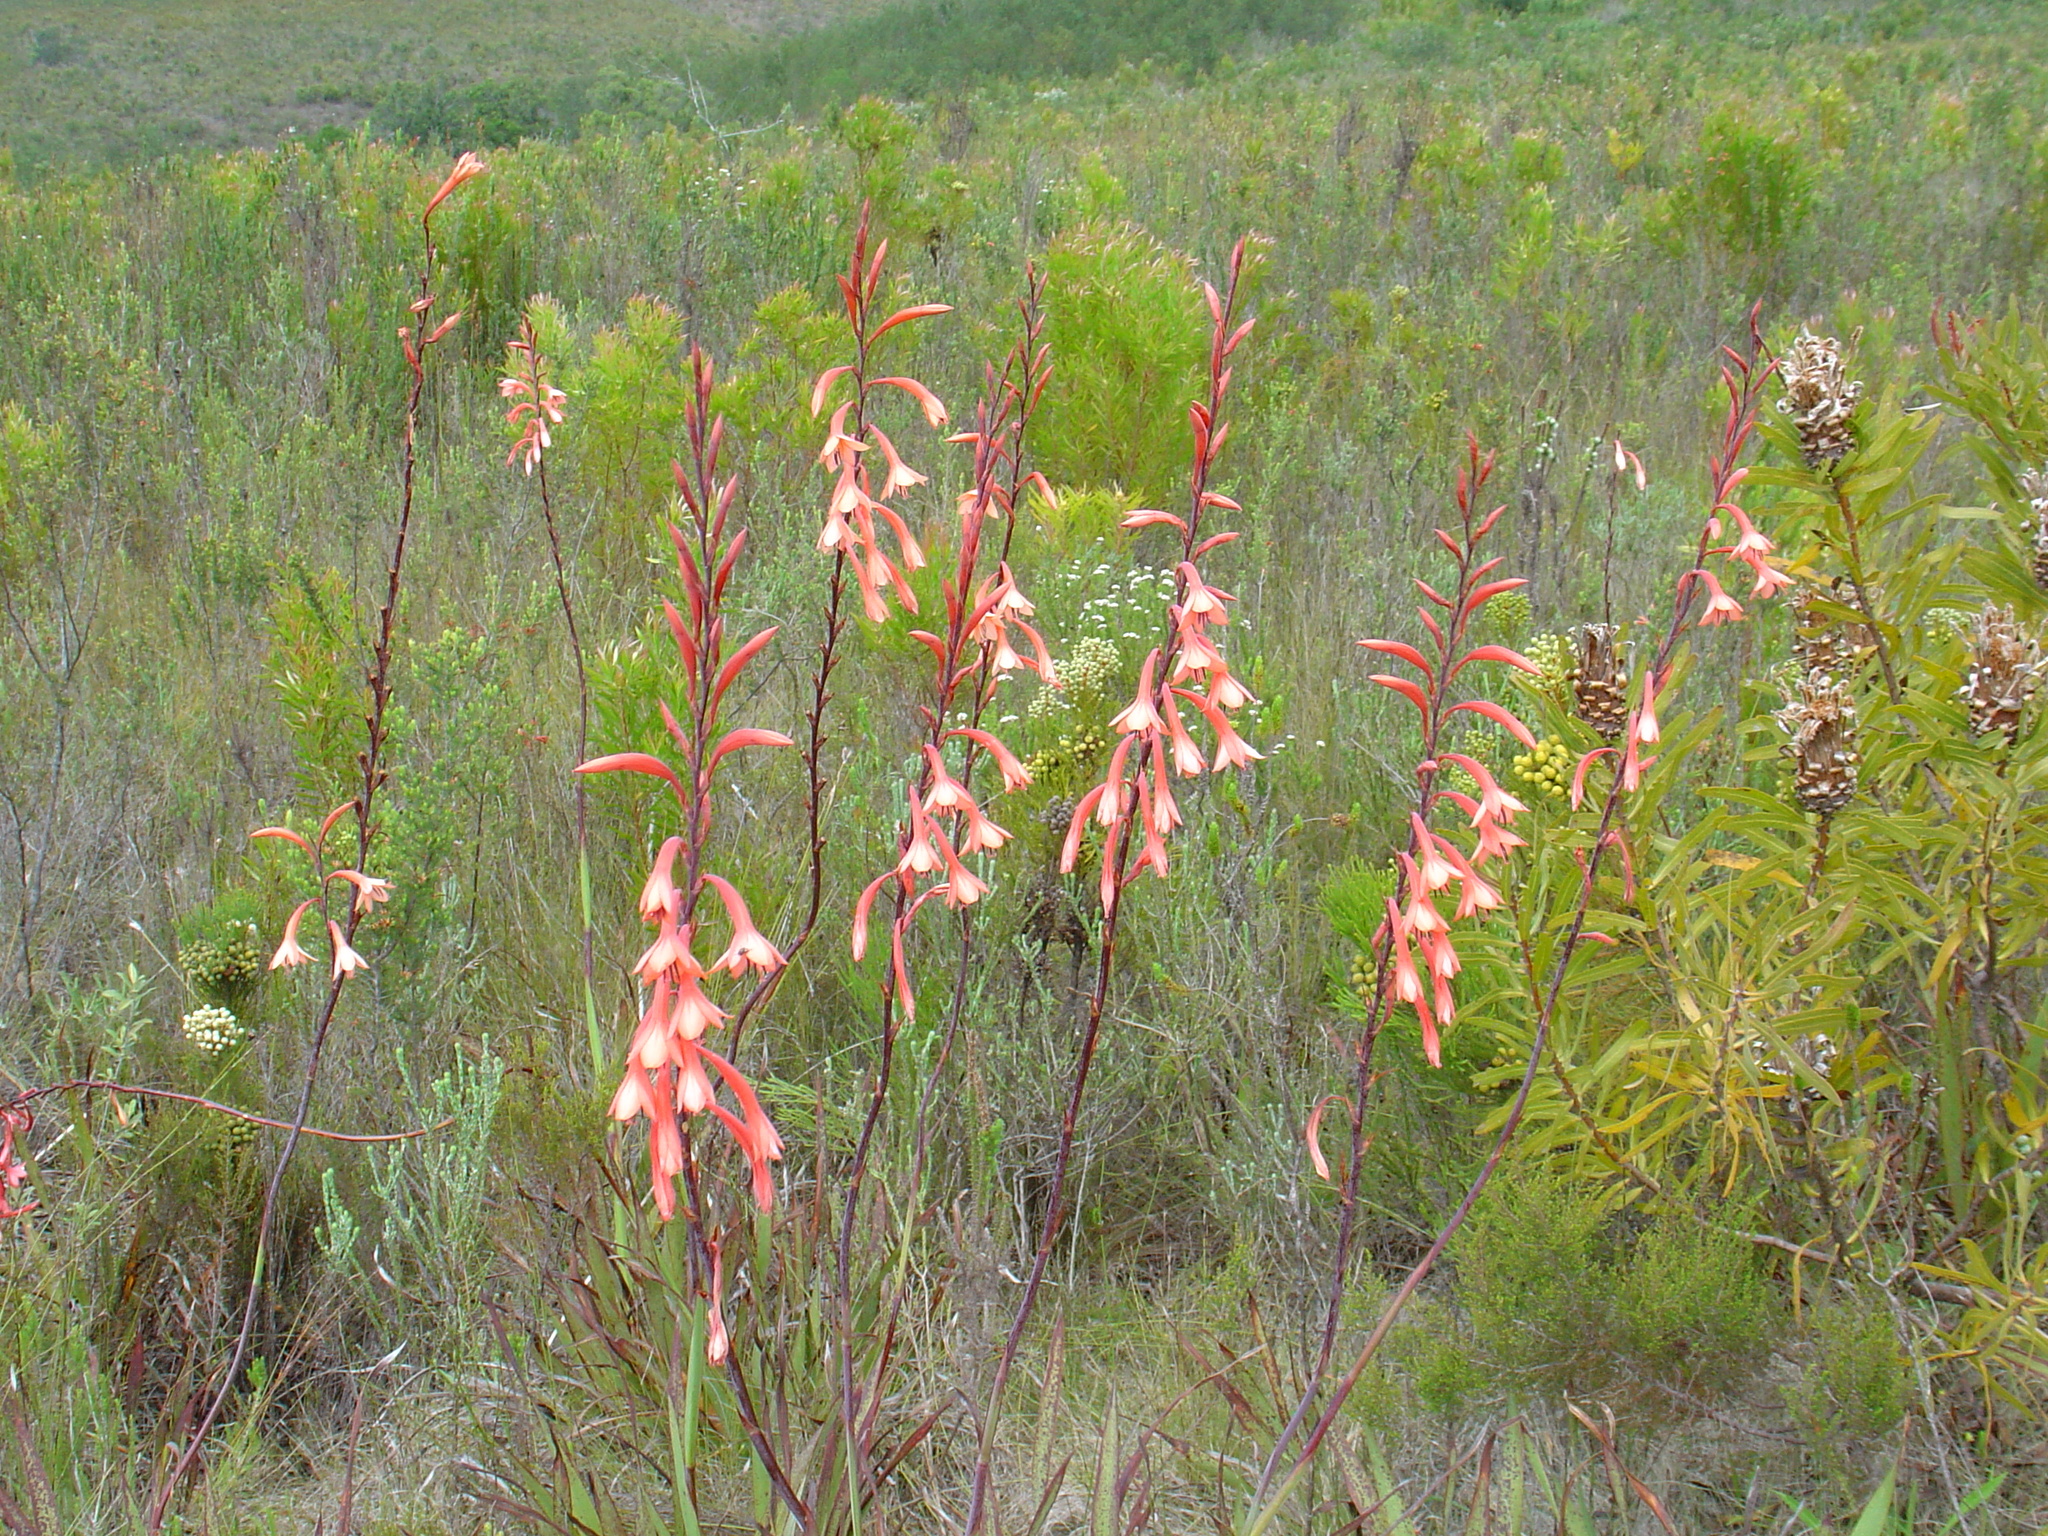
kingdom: Plantae
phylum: Tracheophyta
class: Liliopsida
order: Asparagales
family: Iridaceae
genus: Watsonia
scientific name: Watsonia pillansii
